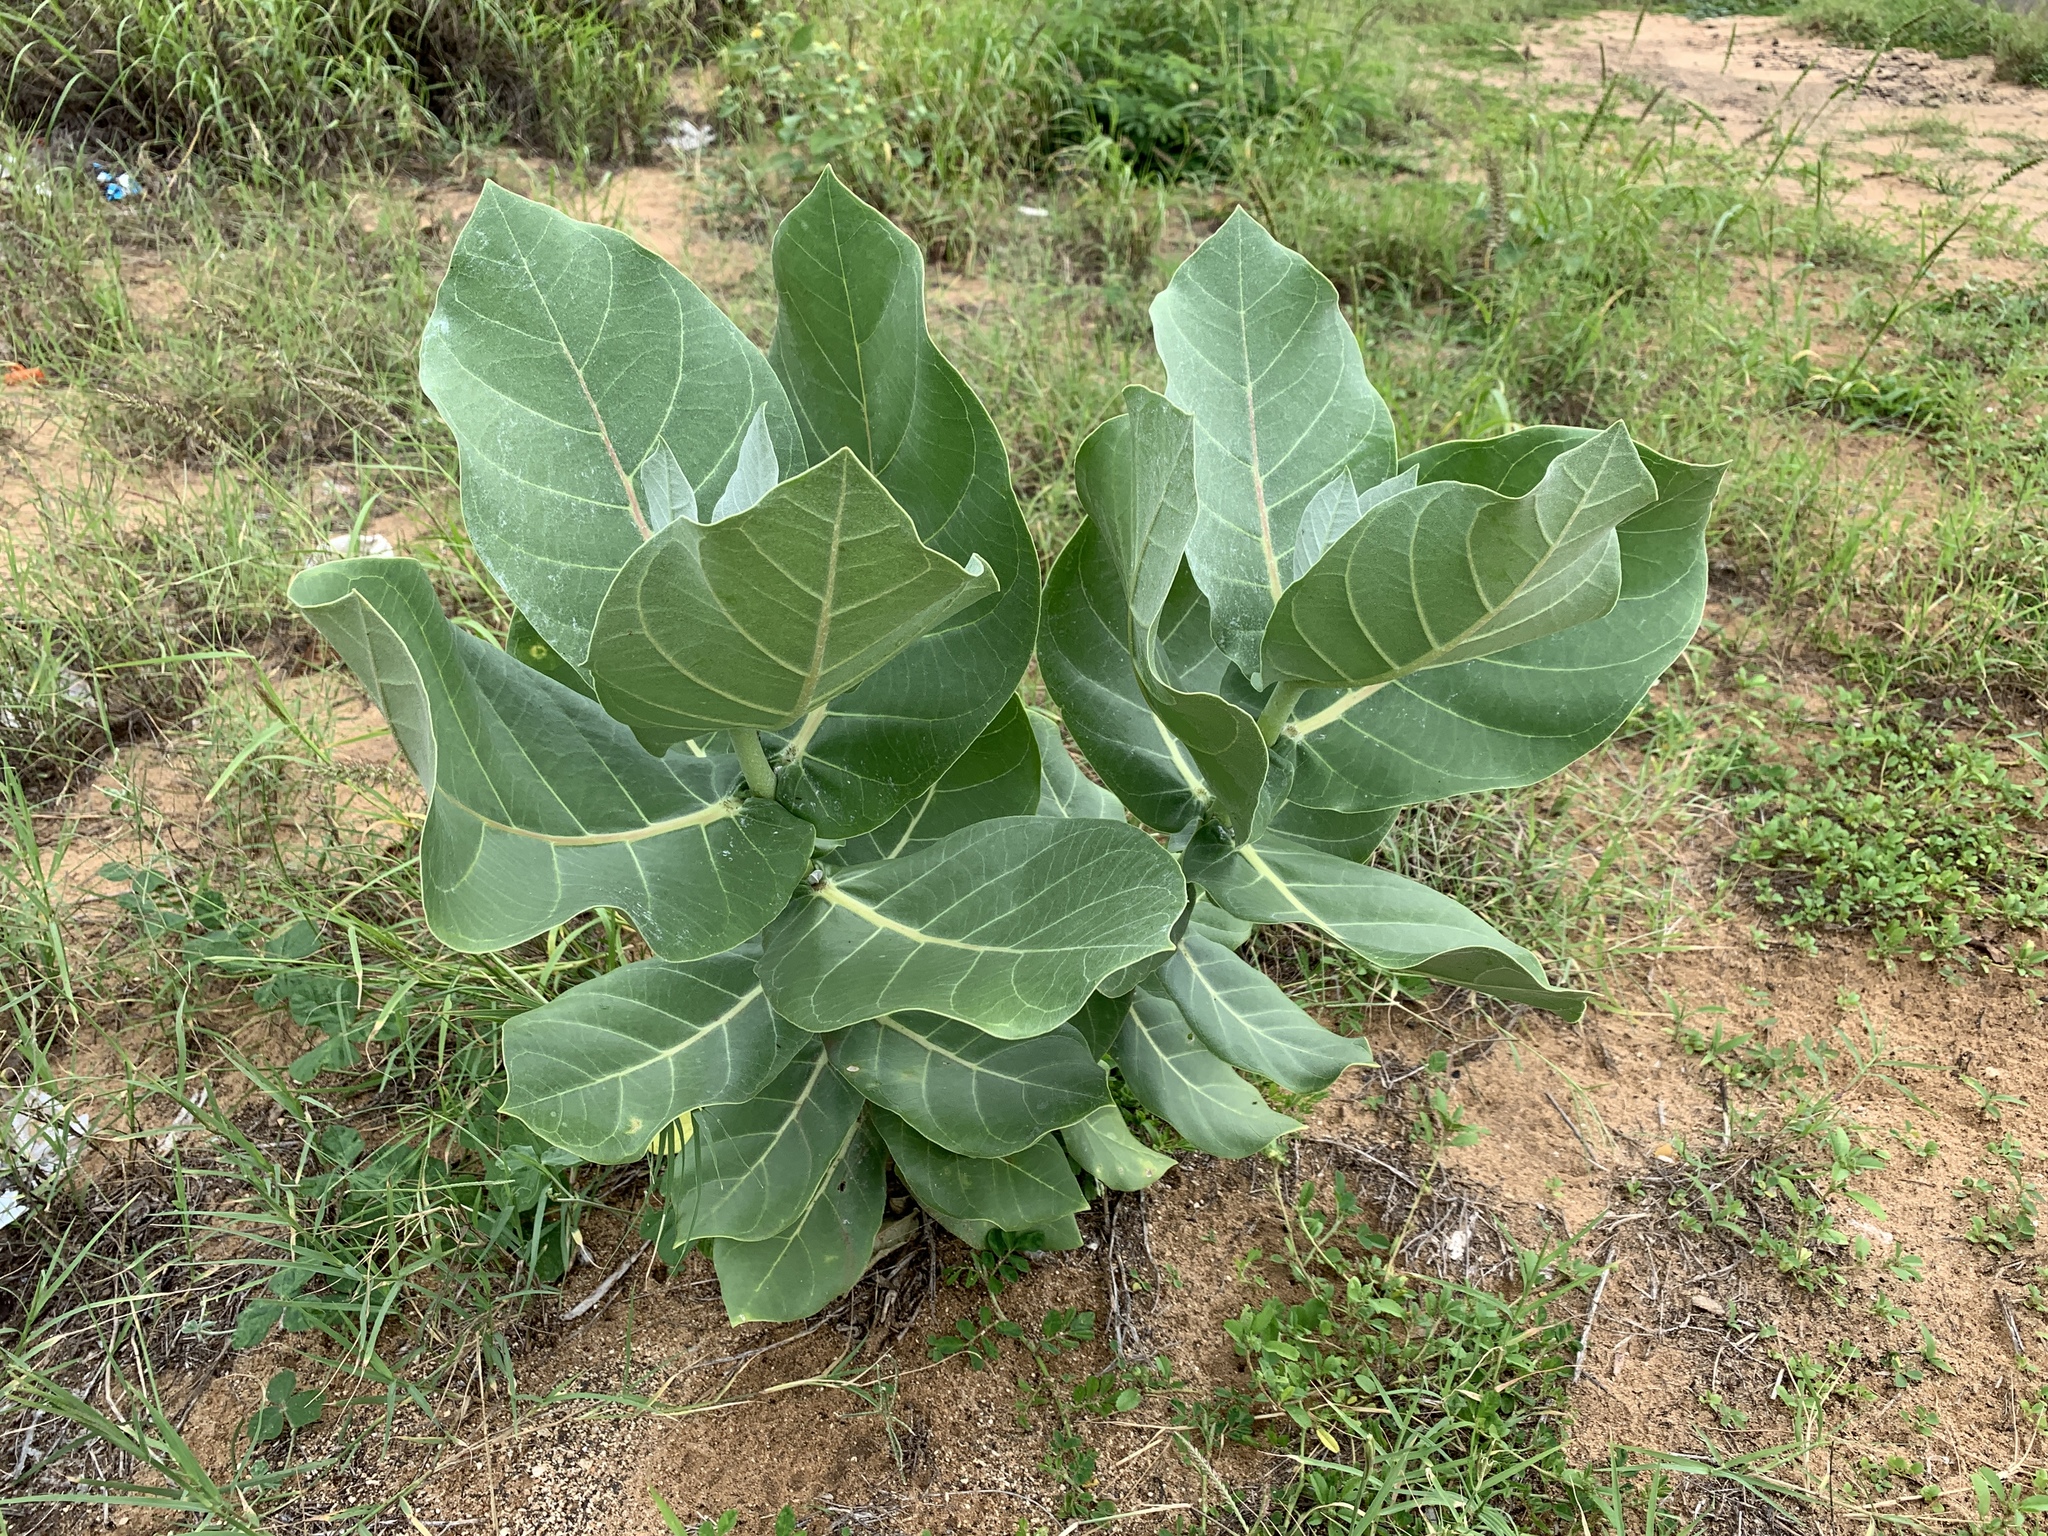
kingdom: Plantae
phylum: Tracheophyta
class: Magnoliopsida
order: Gentianales
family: Apocynaceae
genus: Calotropis
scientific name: Calotropis procera
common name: Roostertree
